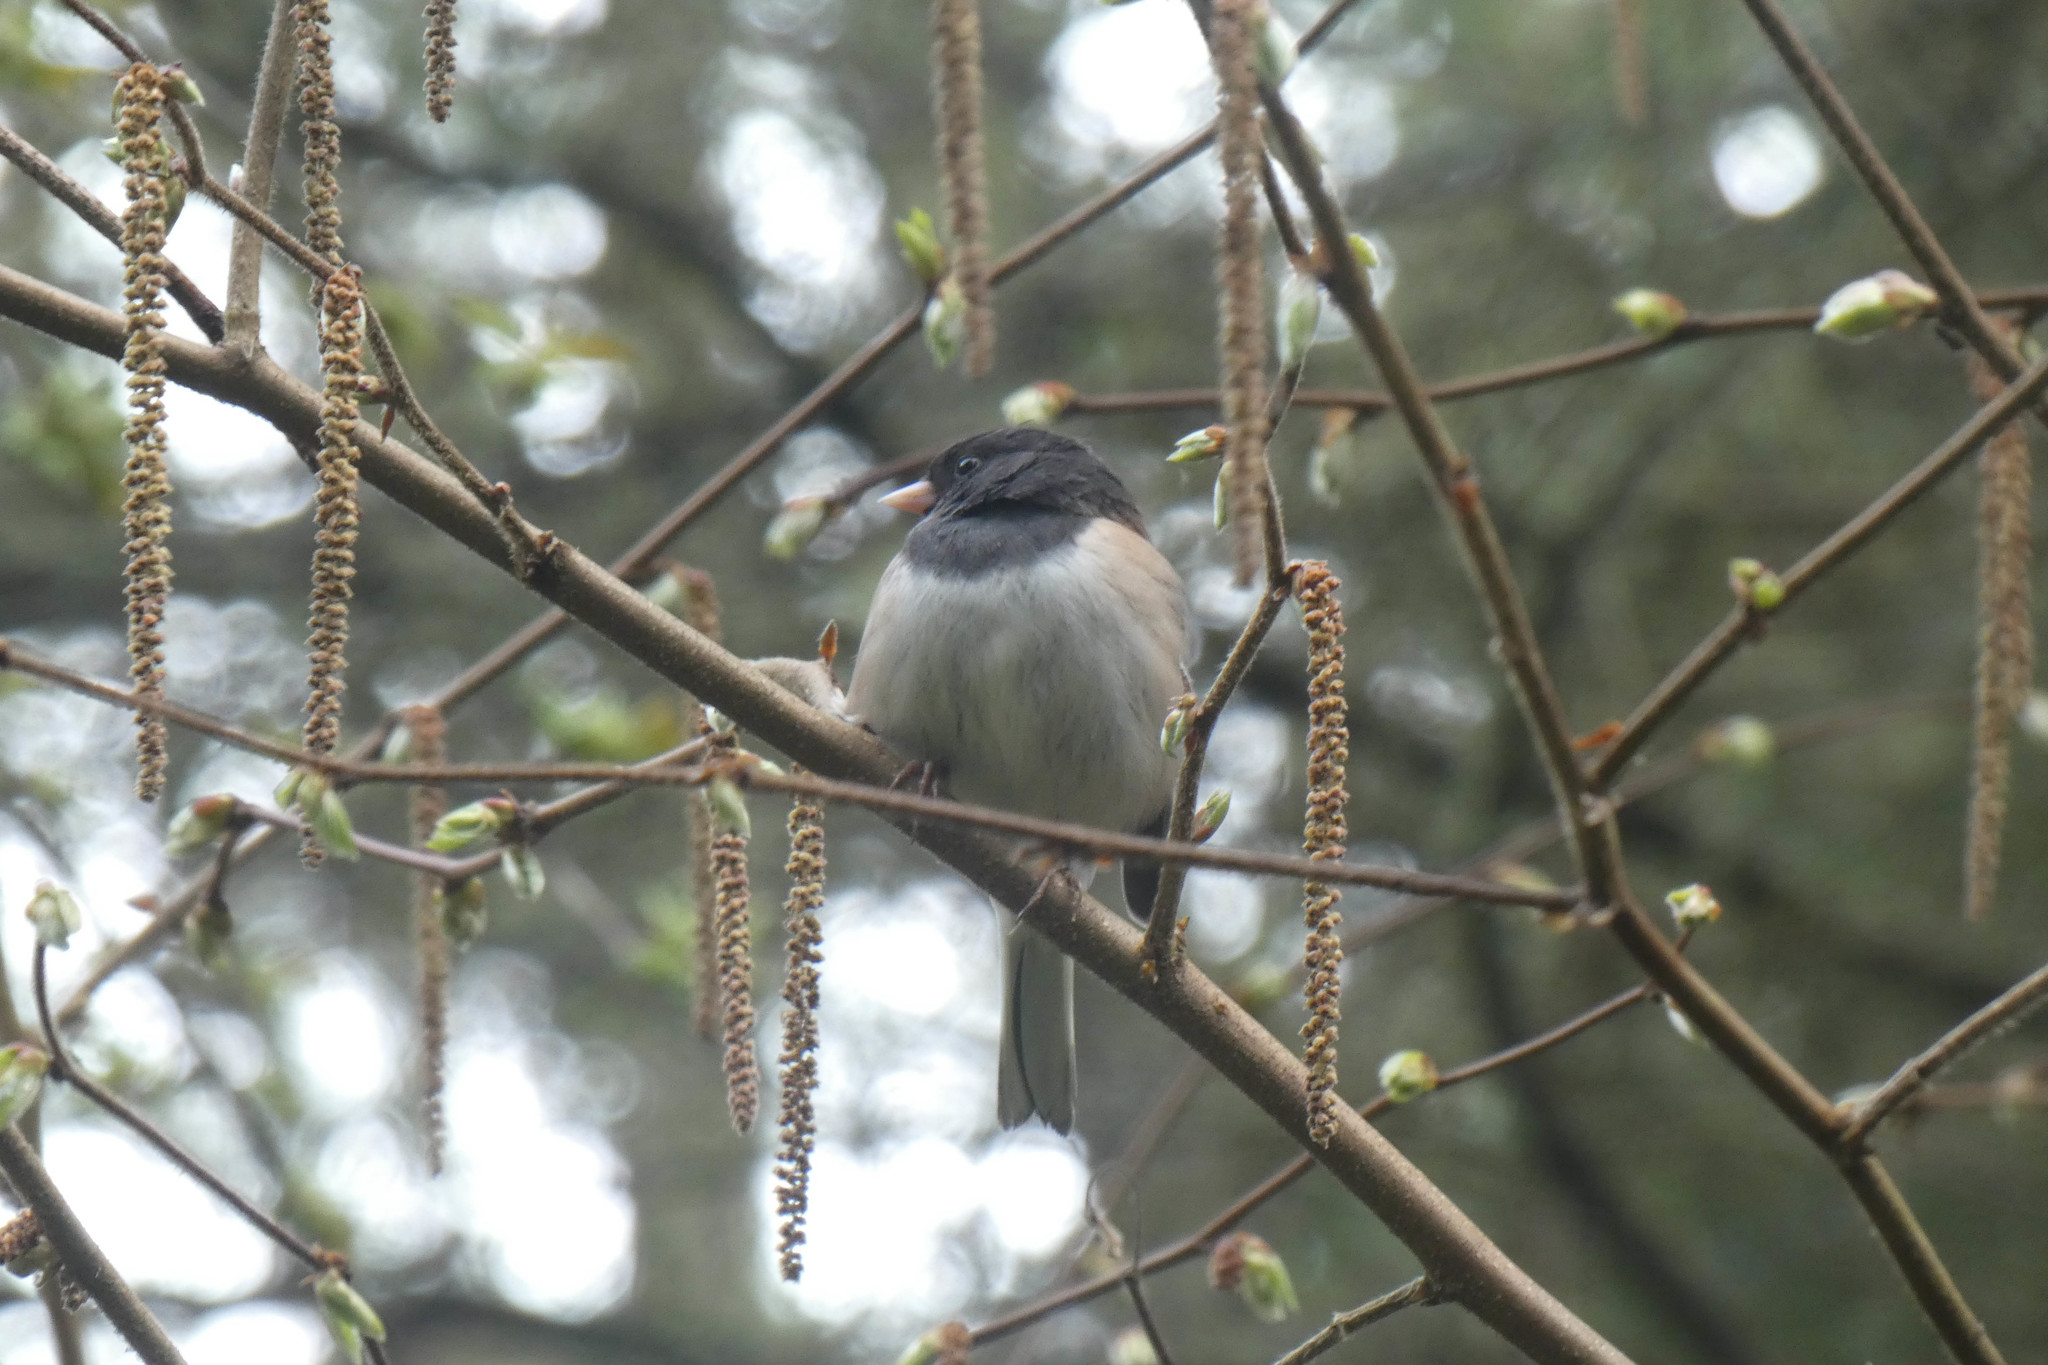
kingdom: Animalia
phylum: Chordata
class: Aves
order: Passeriformes
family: Passerellidae
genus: Junco
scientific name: Junco hyemalis
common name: Dark-eyed junco
